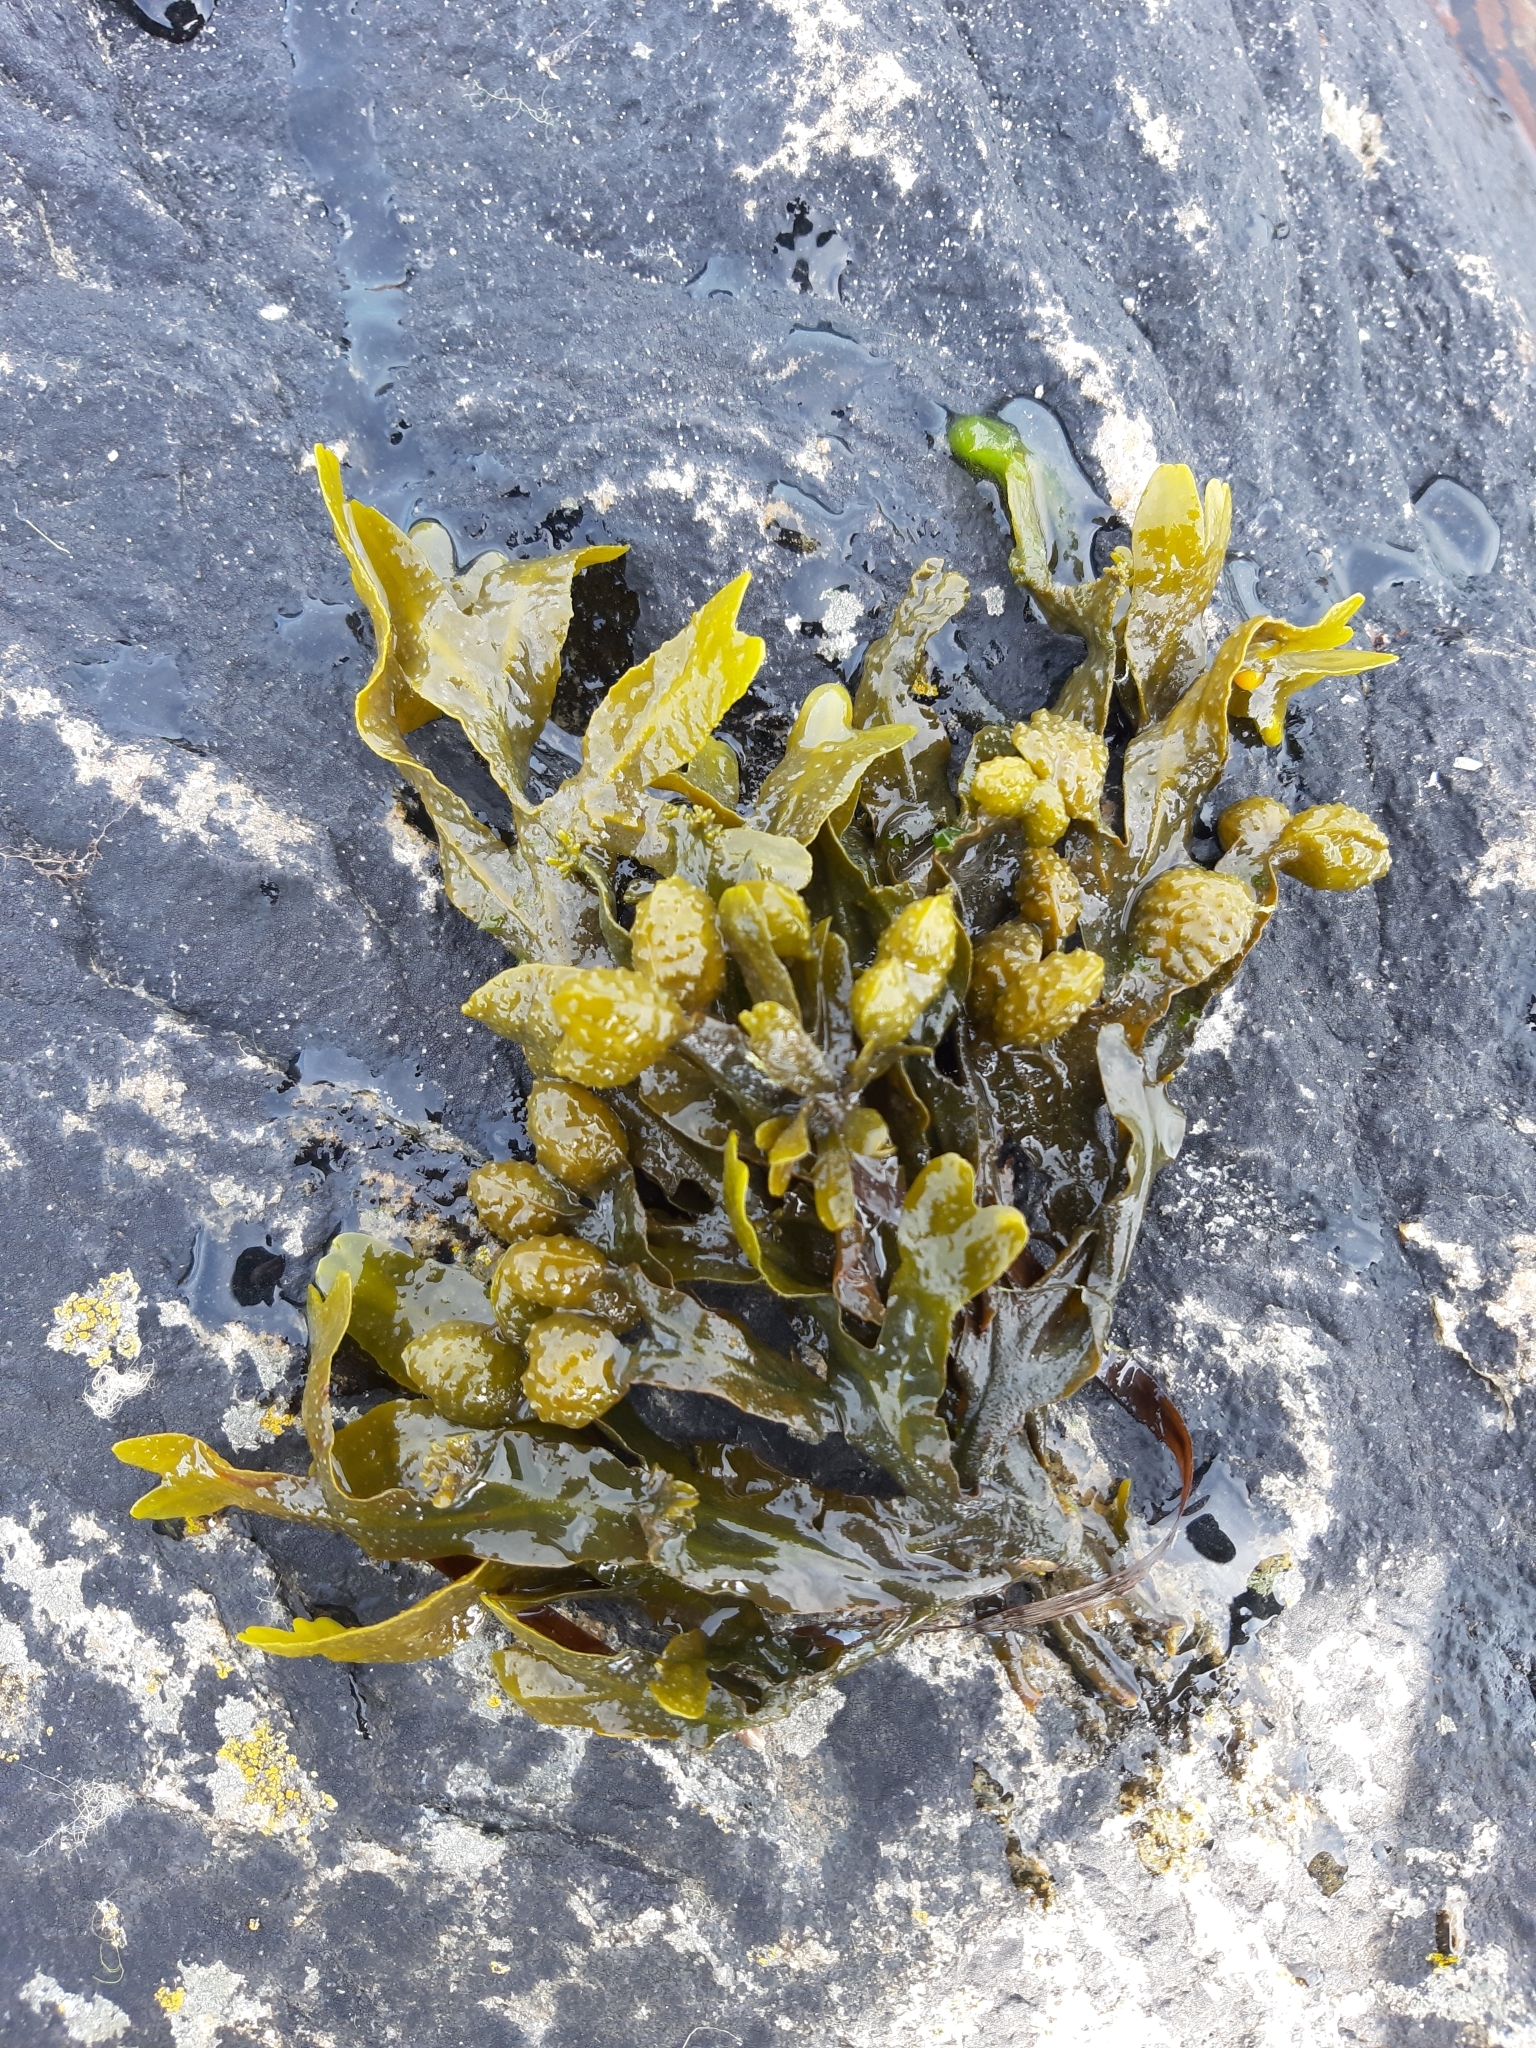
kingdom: Chromista
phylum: Ochrophyta
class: Phaeophyceae
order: Fucales
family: Fucaceae
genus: Fucus
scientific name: Fucus spiralis
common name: Spiral wrack
